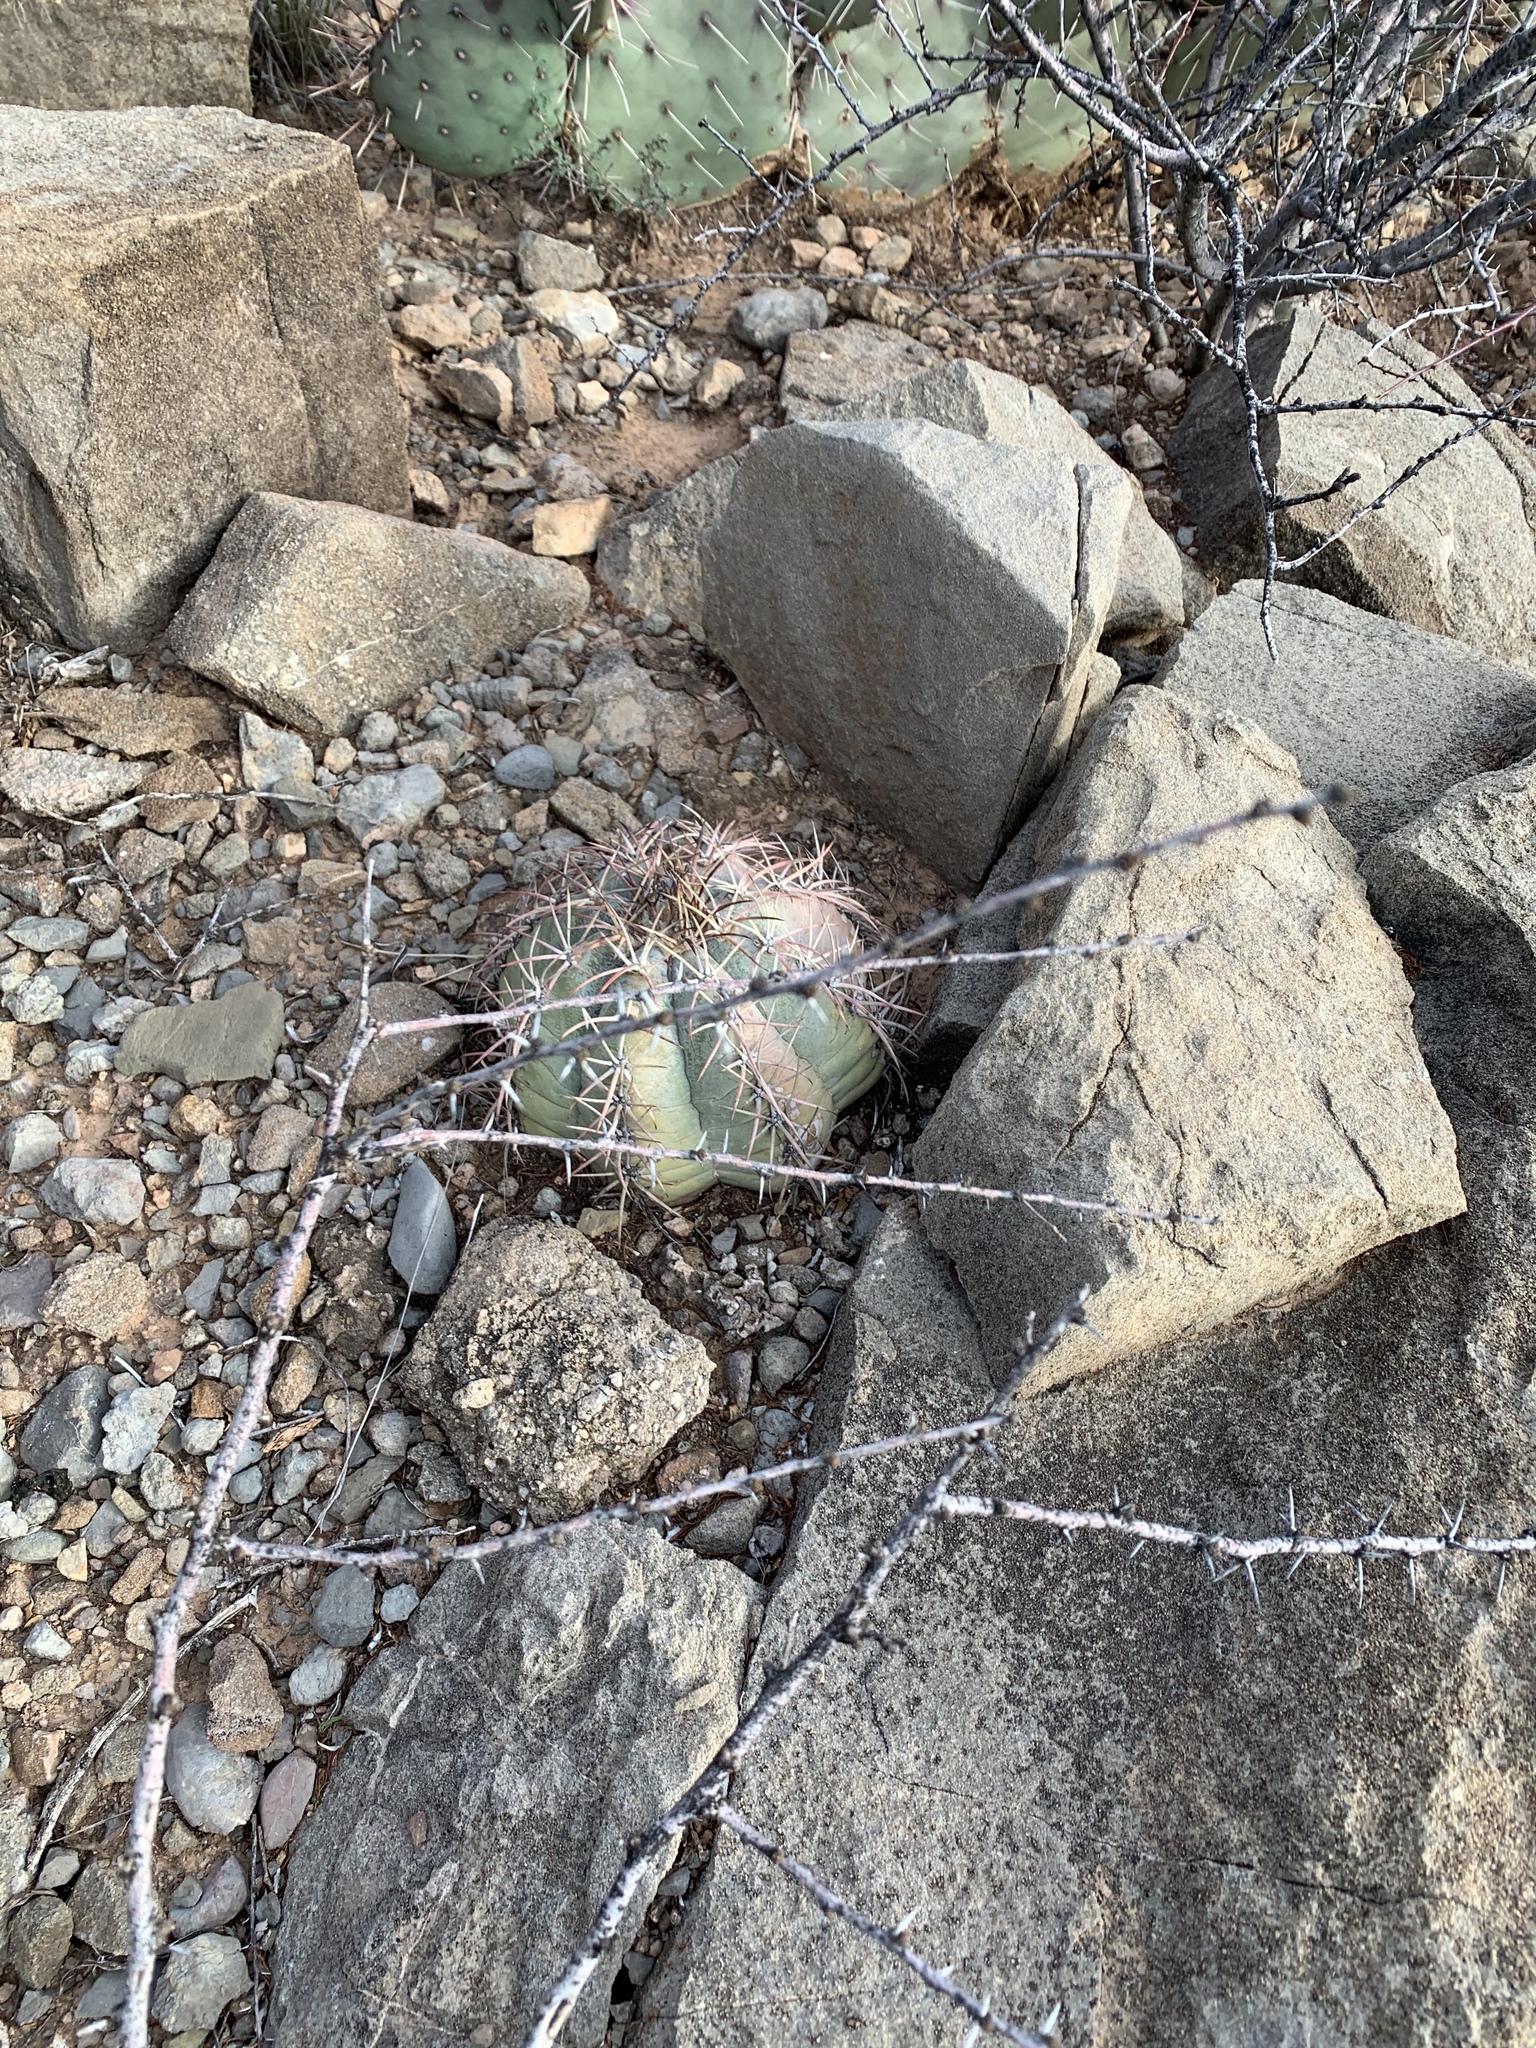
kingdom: Plantae
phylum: Tracheophyta
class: Magnoliopsida
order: Caryophyllales
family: Cactaceae
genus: Echinocactus
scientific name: Echinocactus horizonthalonius
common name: Devilshead
